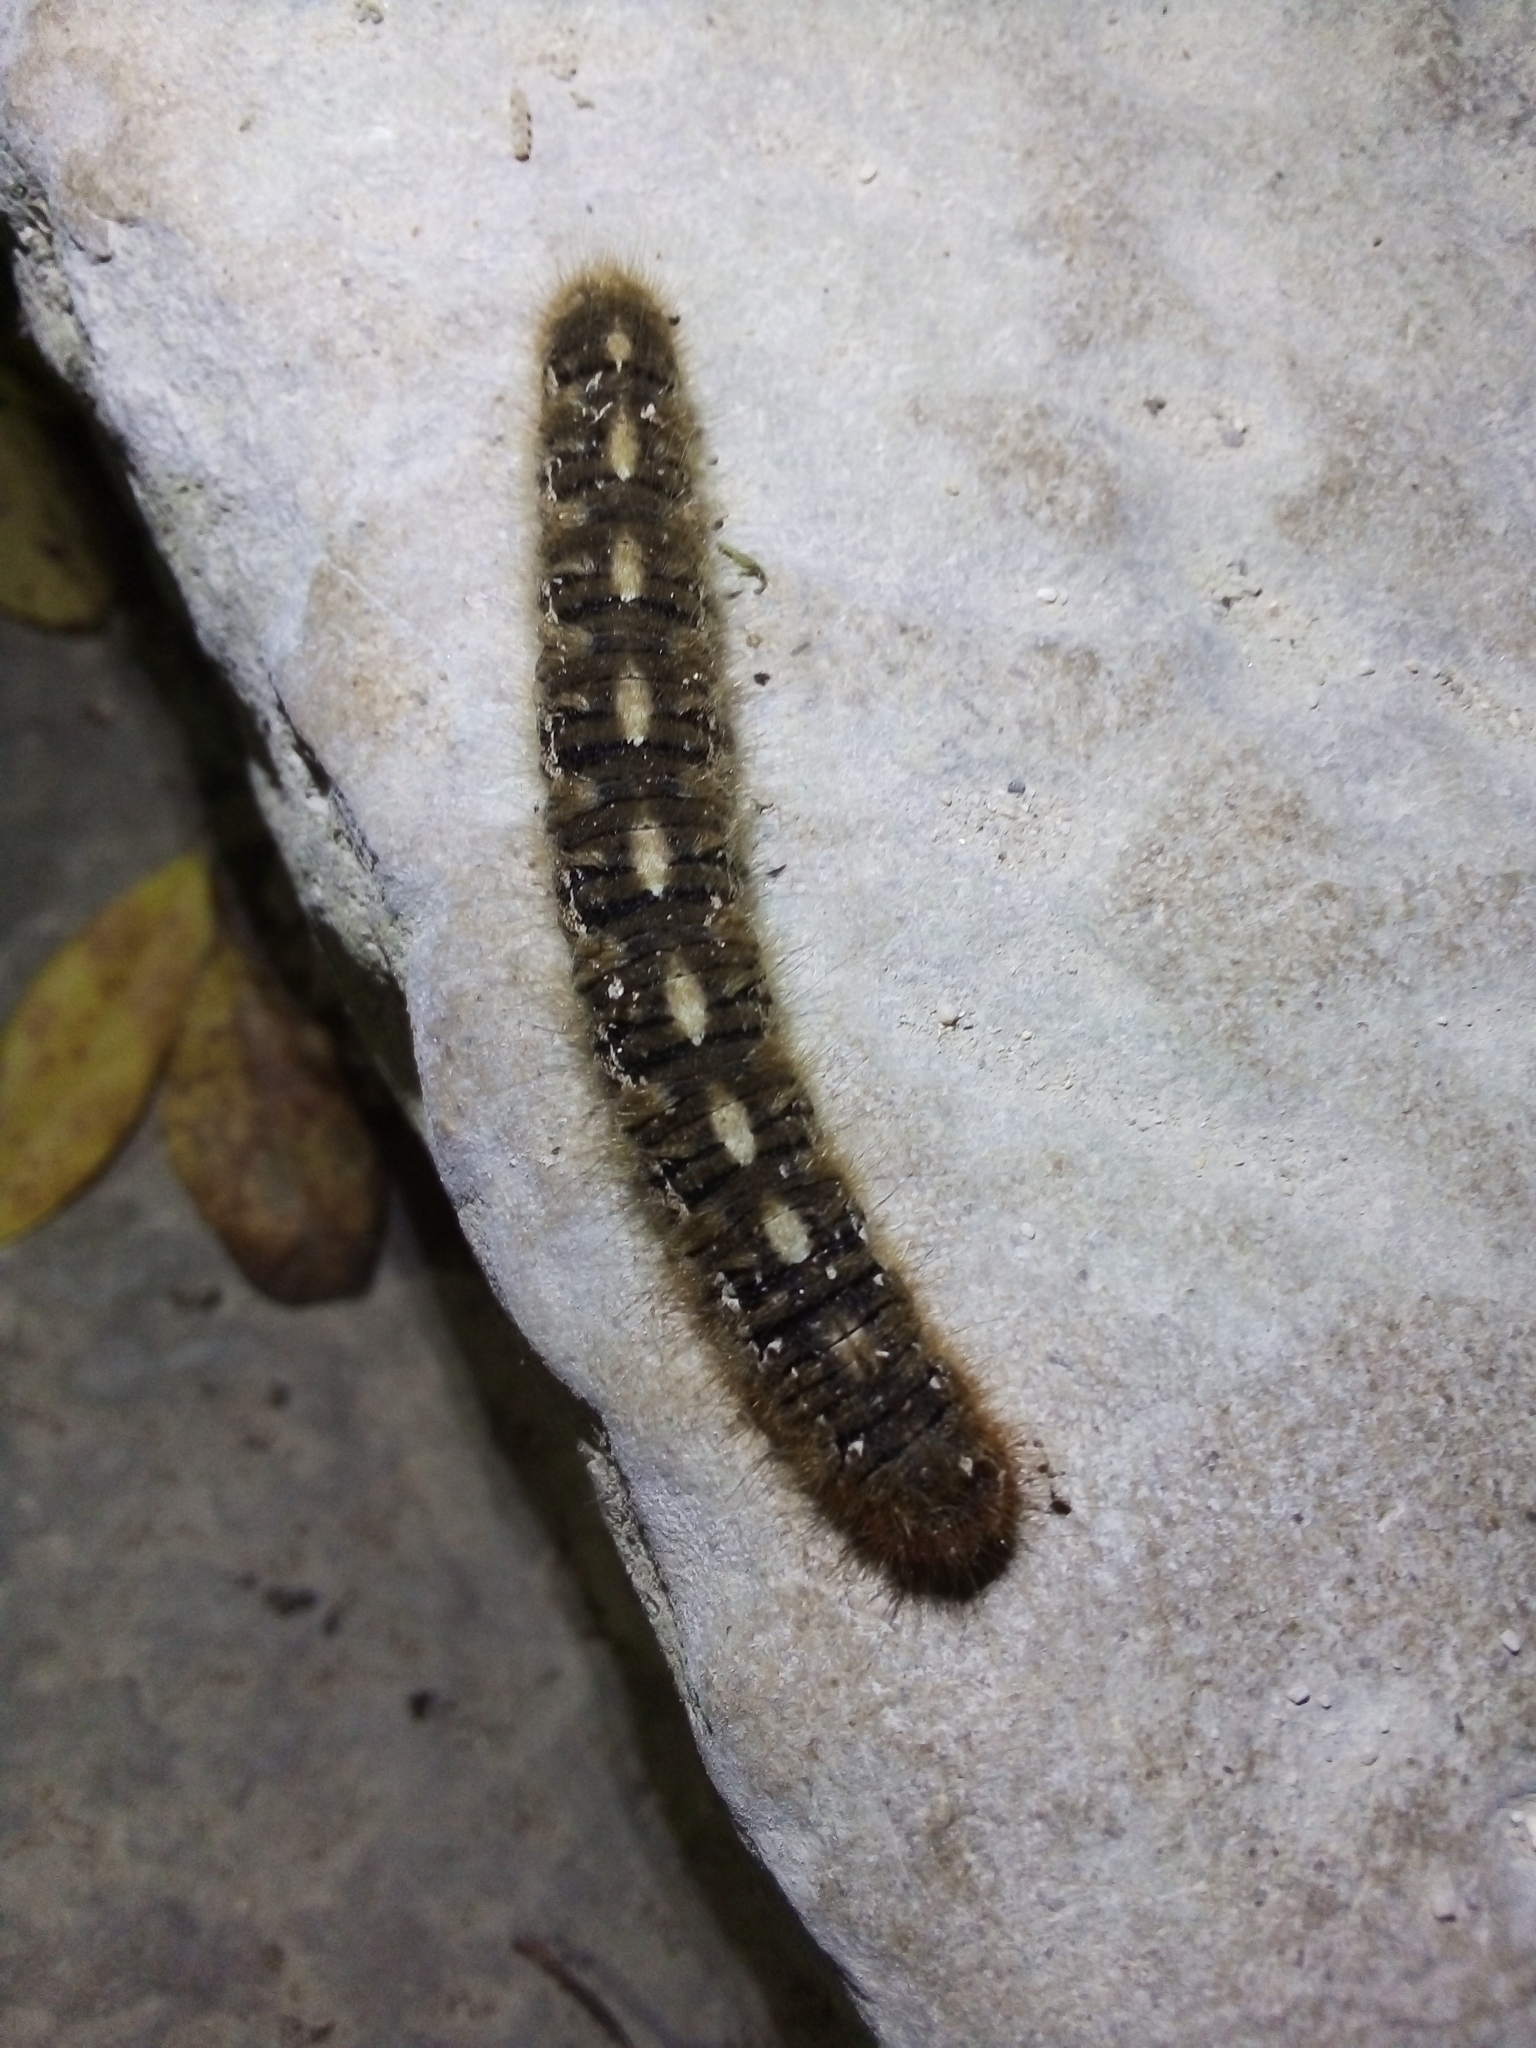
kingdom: Animalia
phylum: Arthropoda
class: Insecta
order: Lepidoptera
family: Lasiocampidae
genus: Lasiocampa
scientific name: Lasiocampa quercus
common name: Oak eggar
